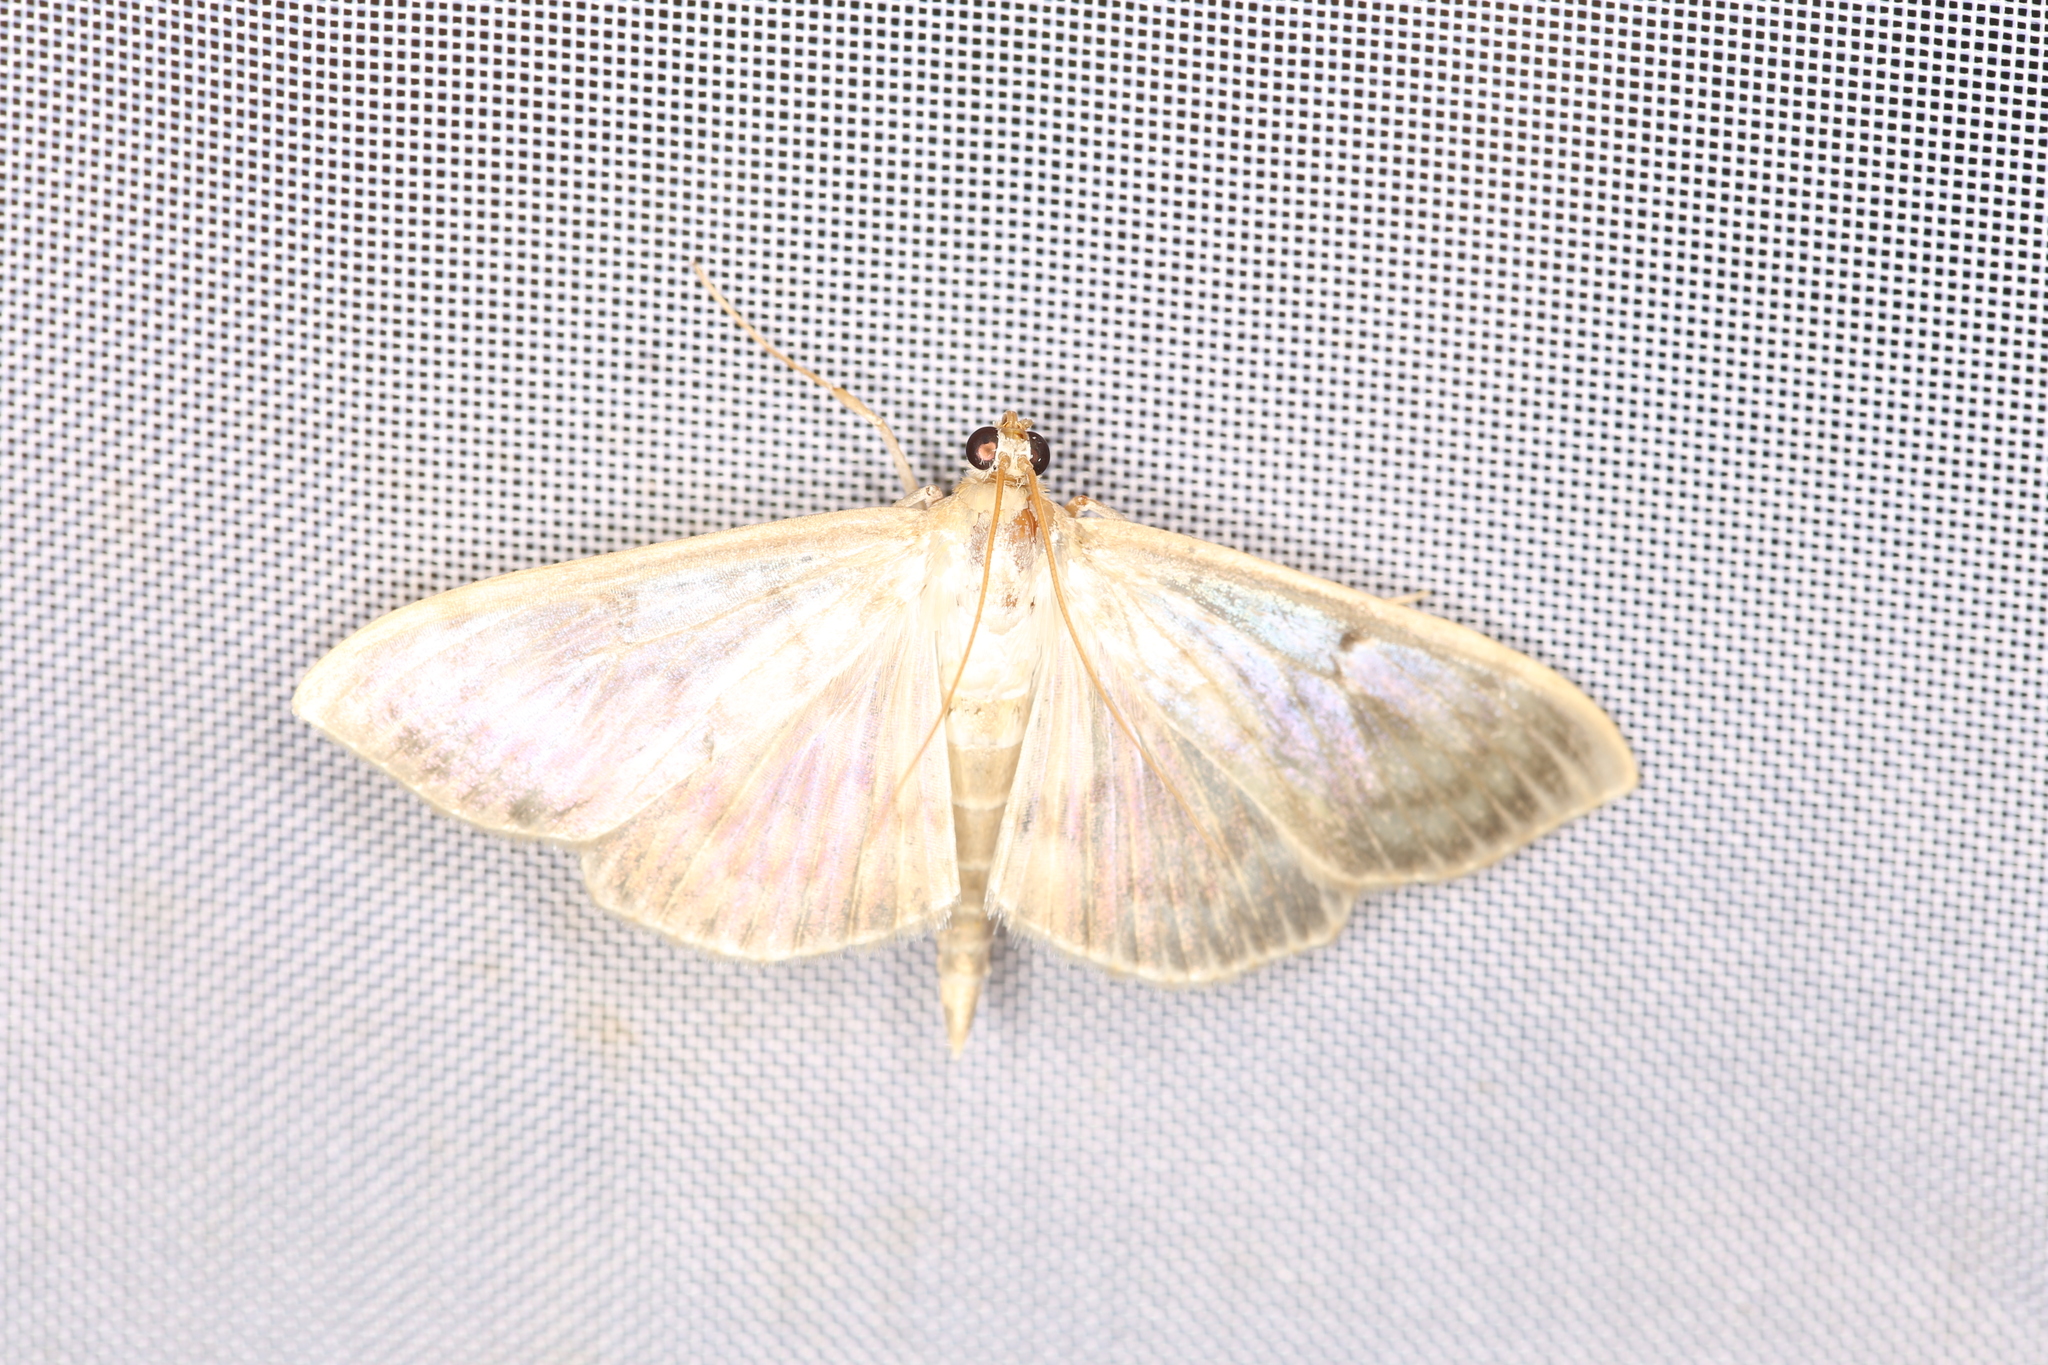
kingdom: Animalia
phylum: Arthropoda
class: Insecta
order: Lepidoptera
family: Crambidae
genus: Patania
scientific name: Patania ruralis
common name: Mother of pearl
